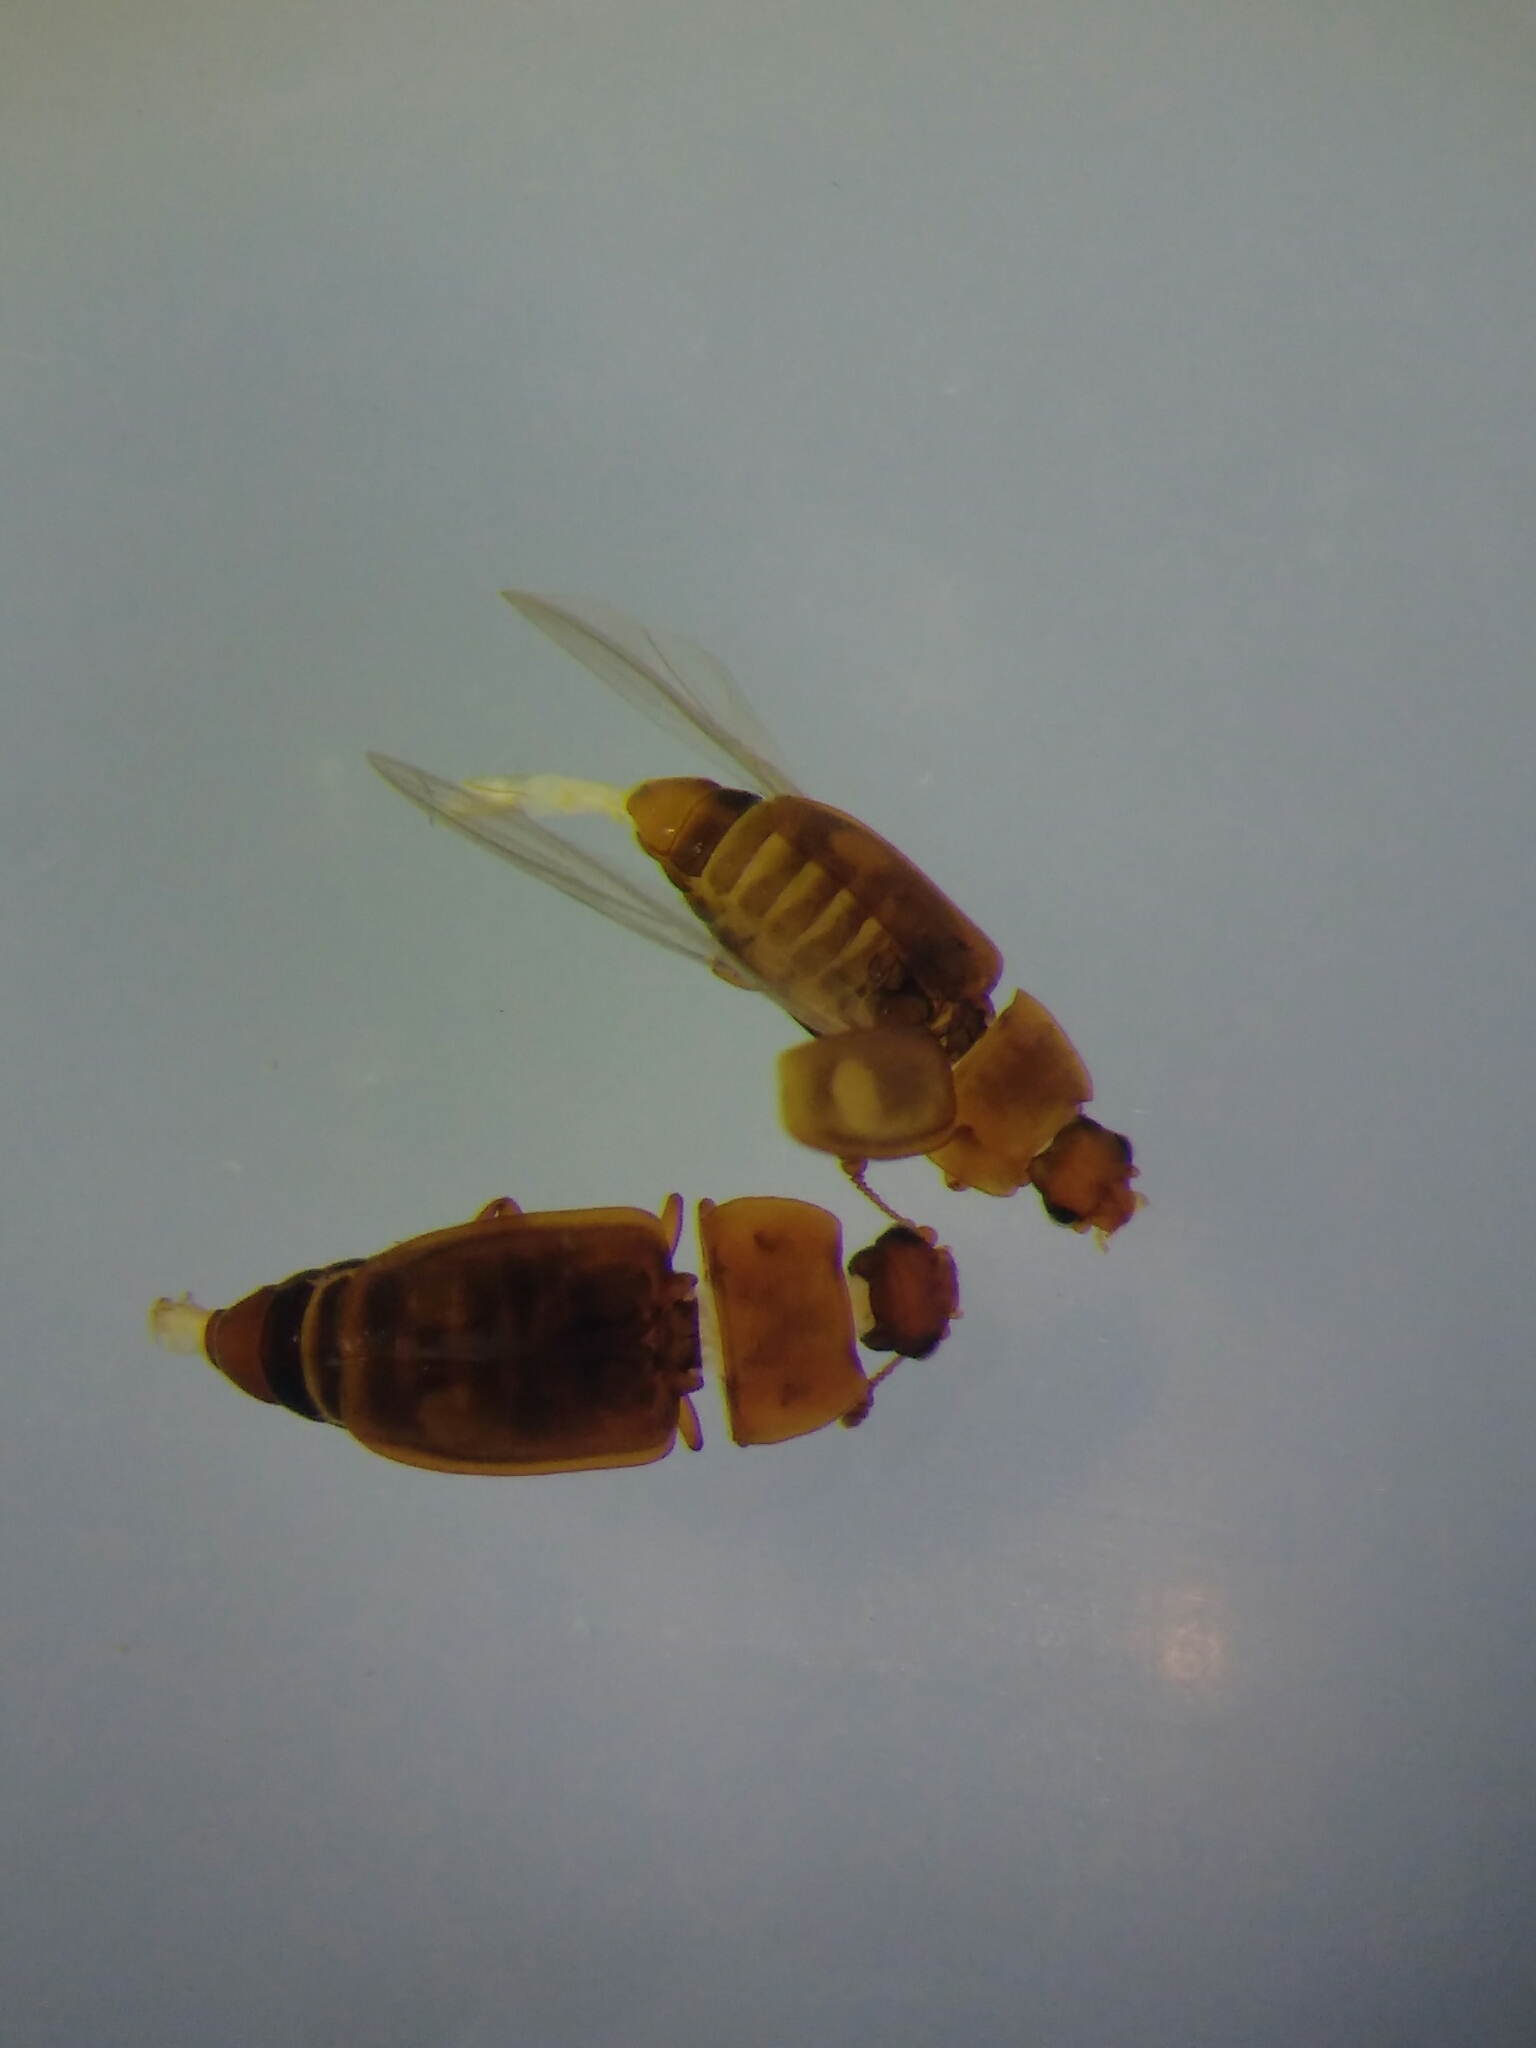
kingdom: Animalia
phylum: Arthropoda
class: Insecta
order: Coleoptera
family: Nitidulidae
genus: Epuraea
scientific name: Epuraea unicolor
